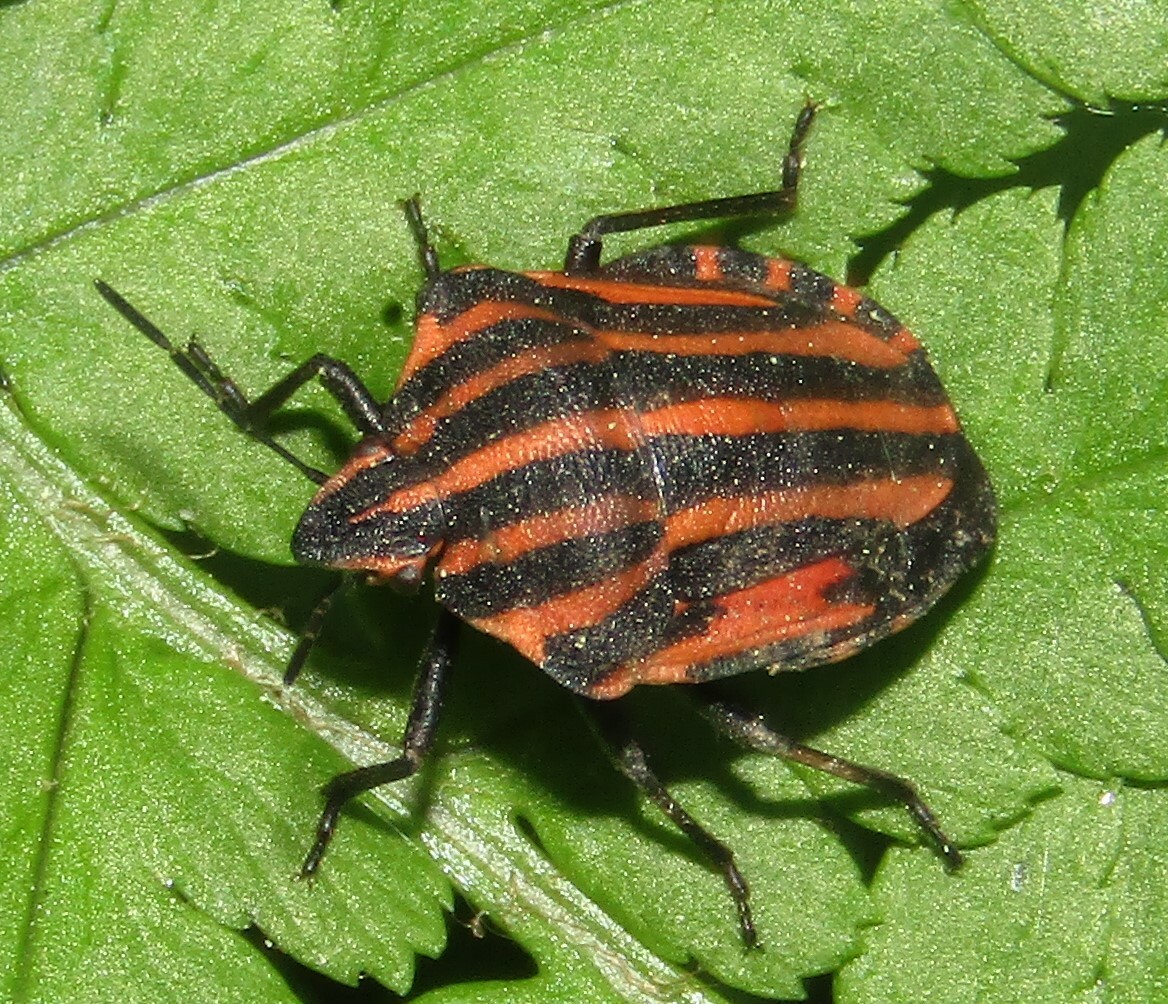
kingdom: Animalia
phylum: Arthropoda
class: Insecta
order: Hemiptera
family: Pentatomidae
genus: Graphosoma
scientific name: Graphosoma italicum
